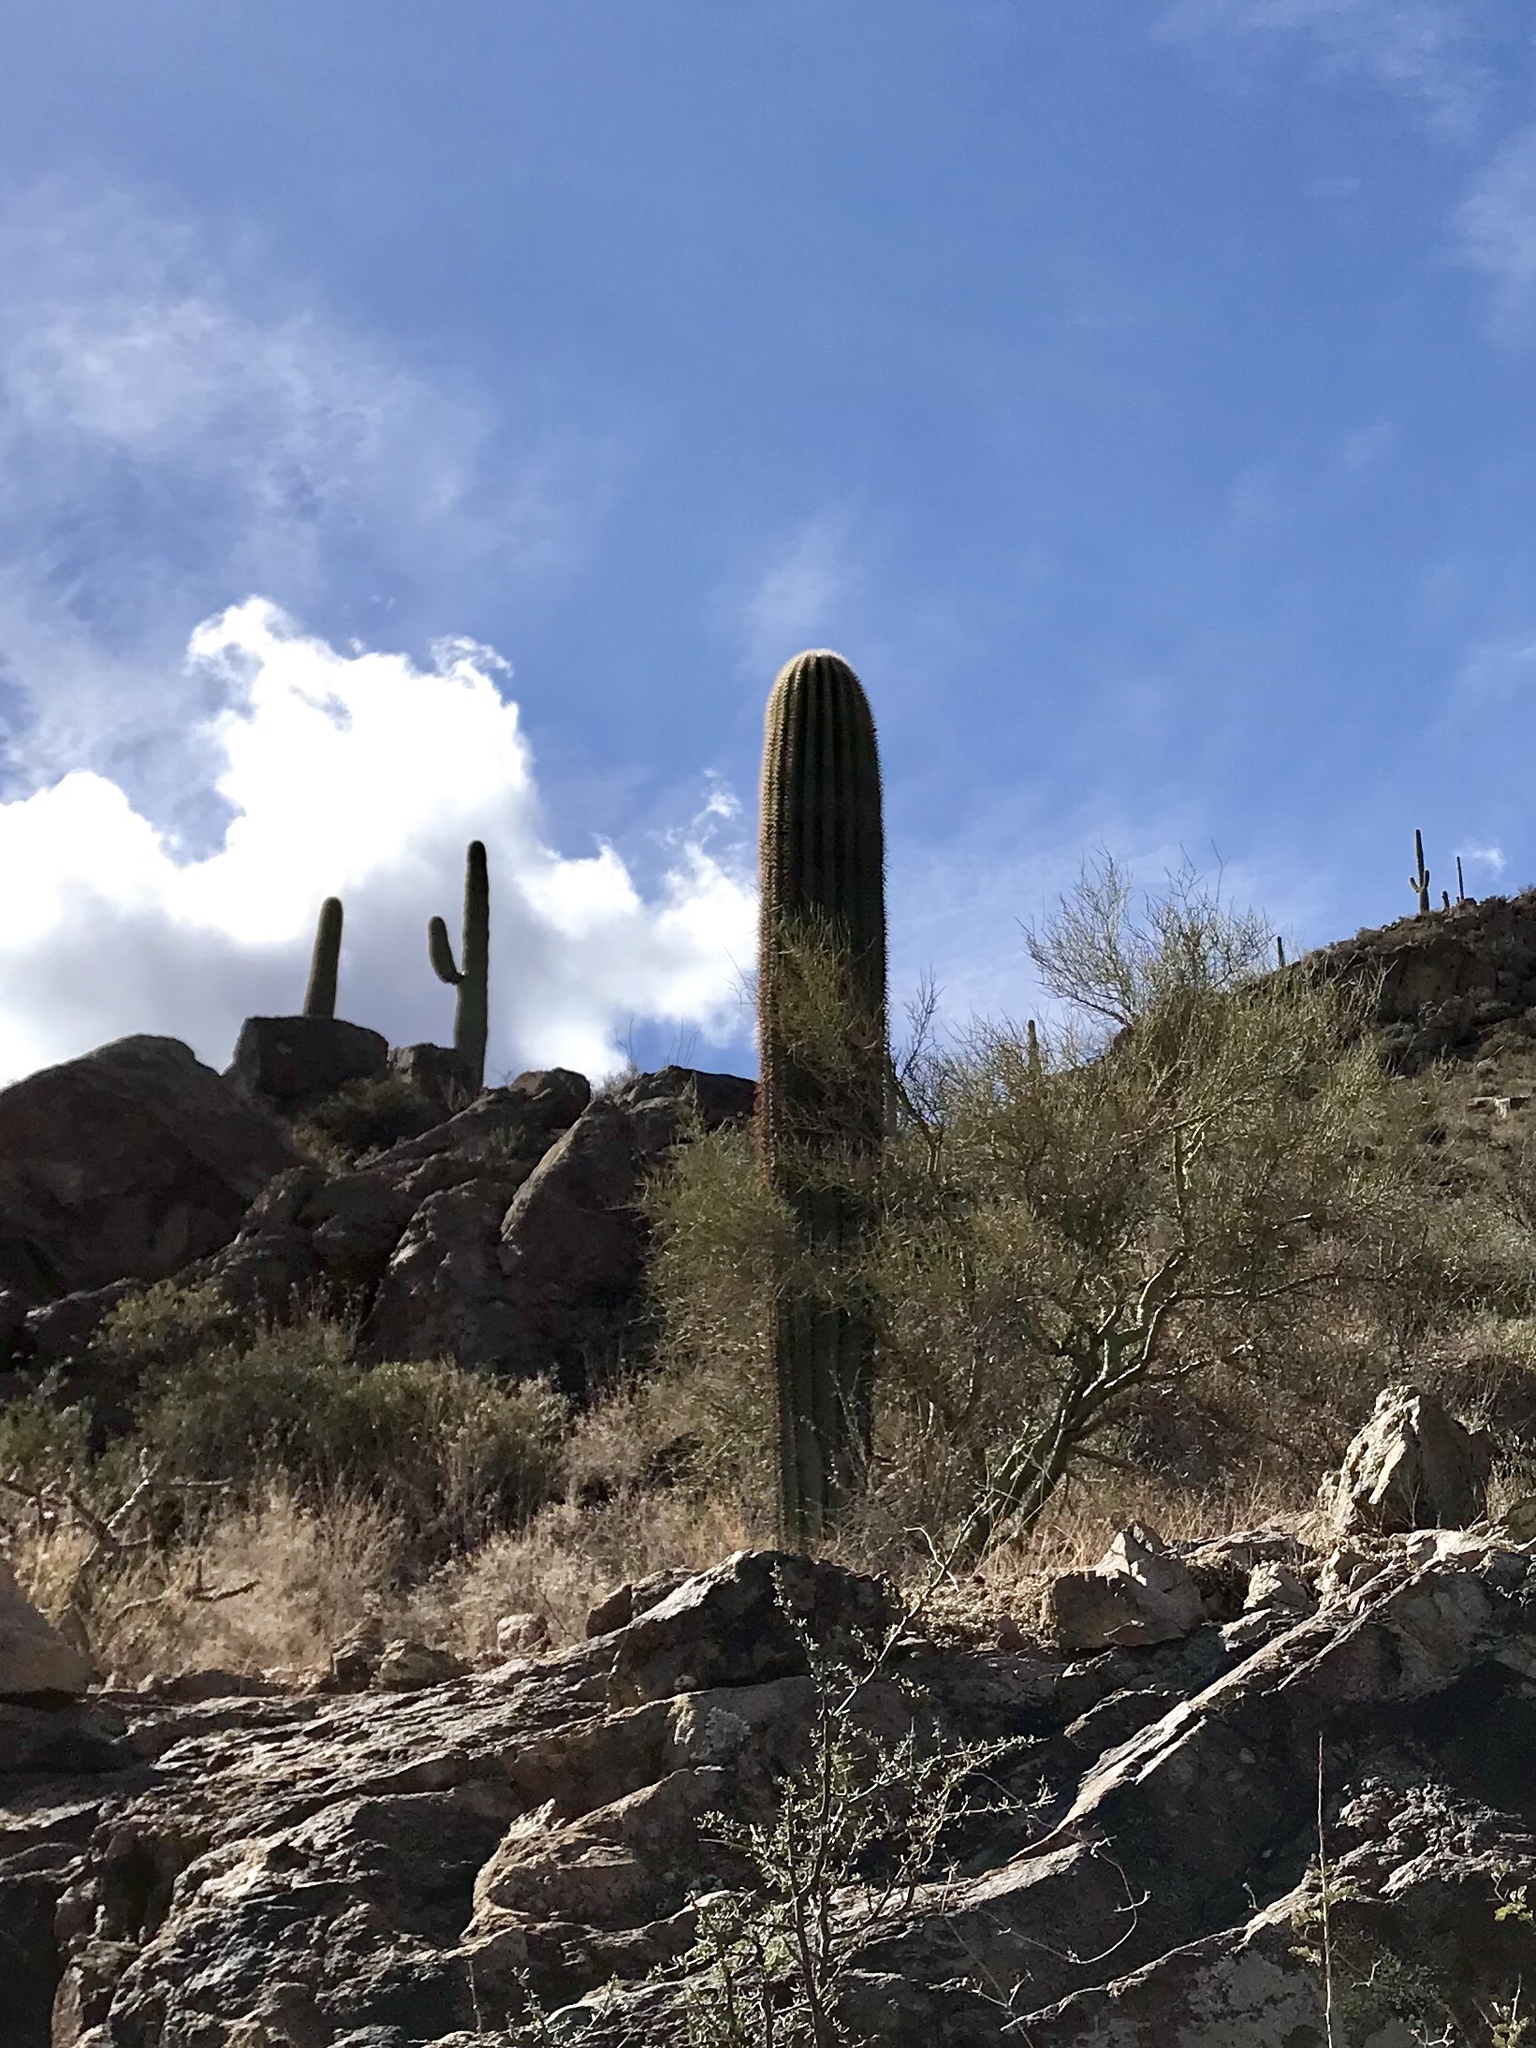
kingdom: Plantae
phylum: Tracheophyta
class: Magnoliopsida
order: Caryophyllales
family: Cactaceae
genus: Carnegiea
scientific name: Carnegiea gigantea
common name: Saguaro
